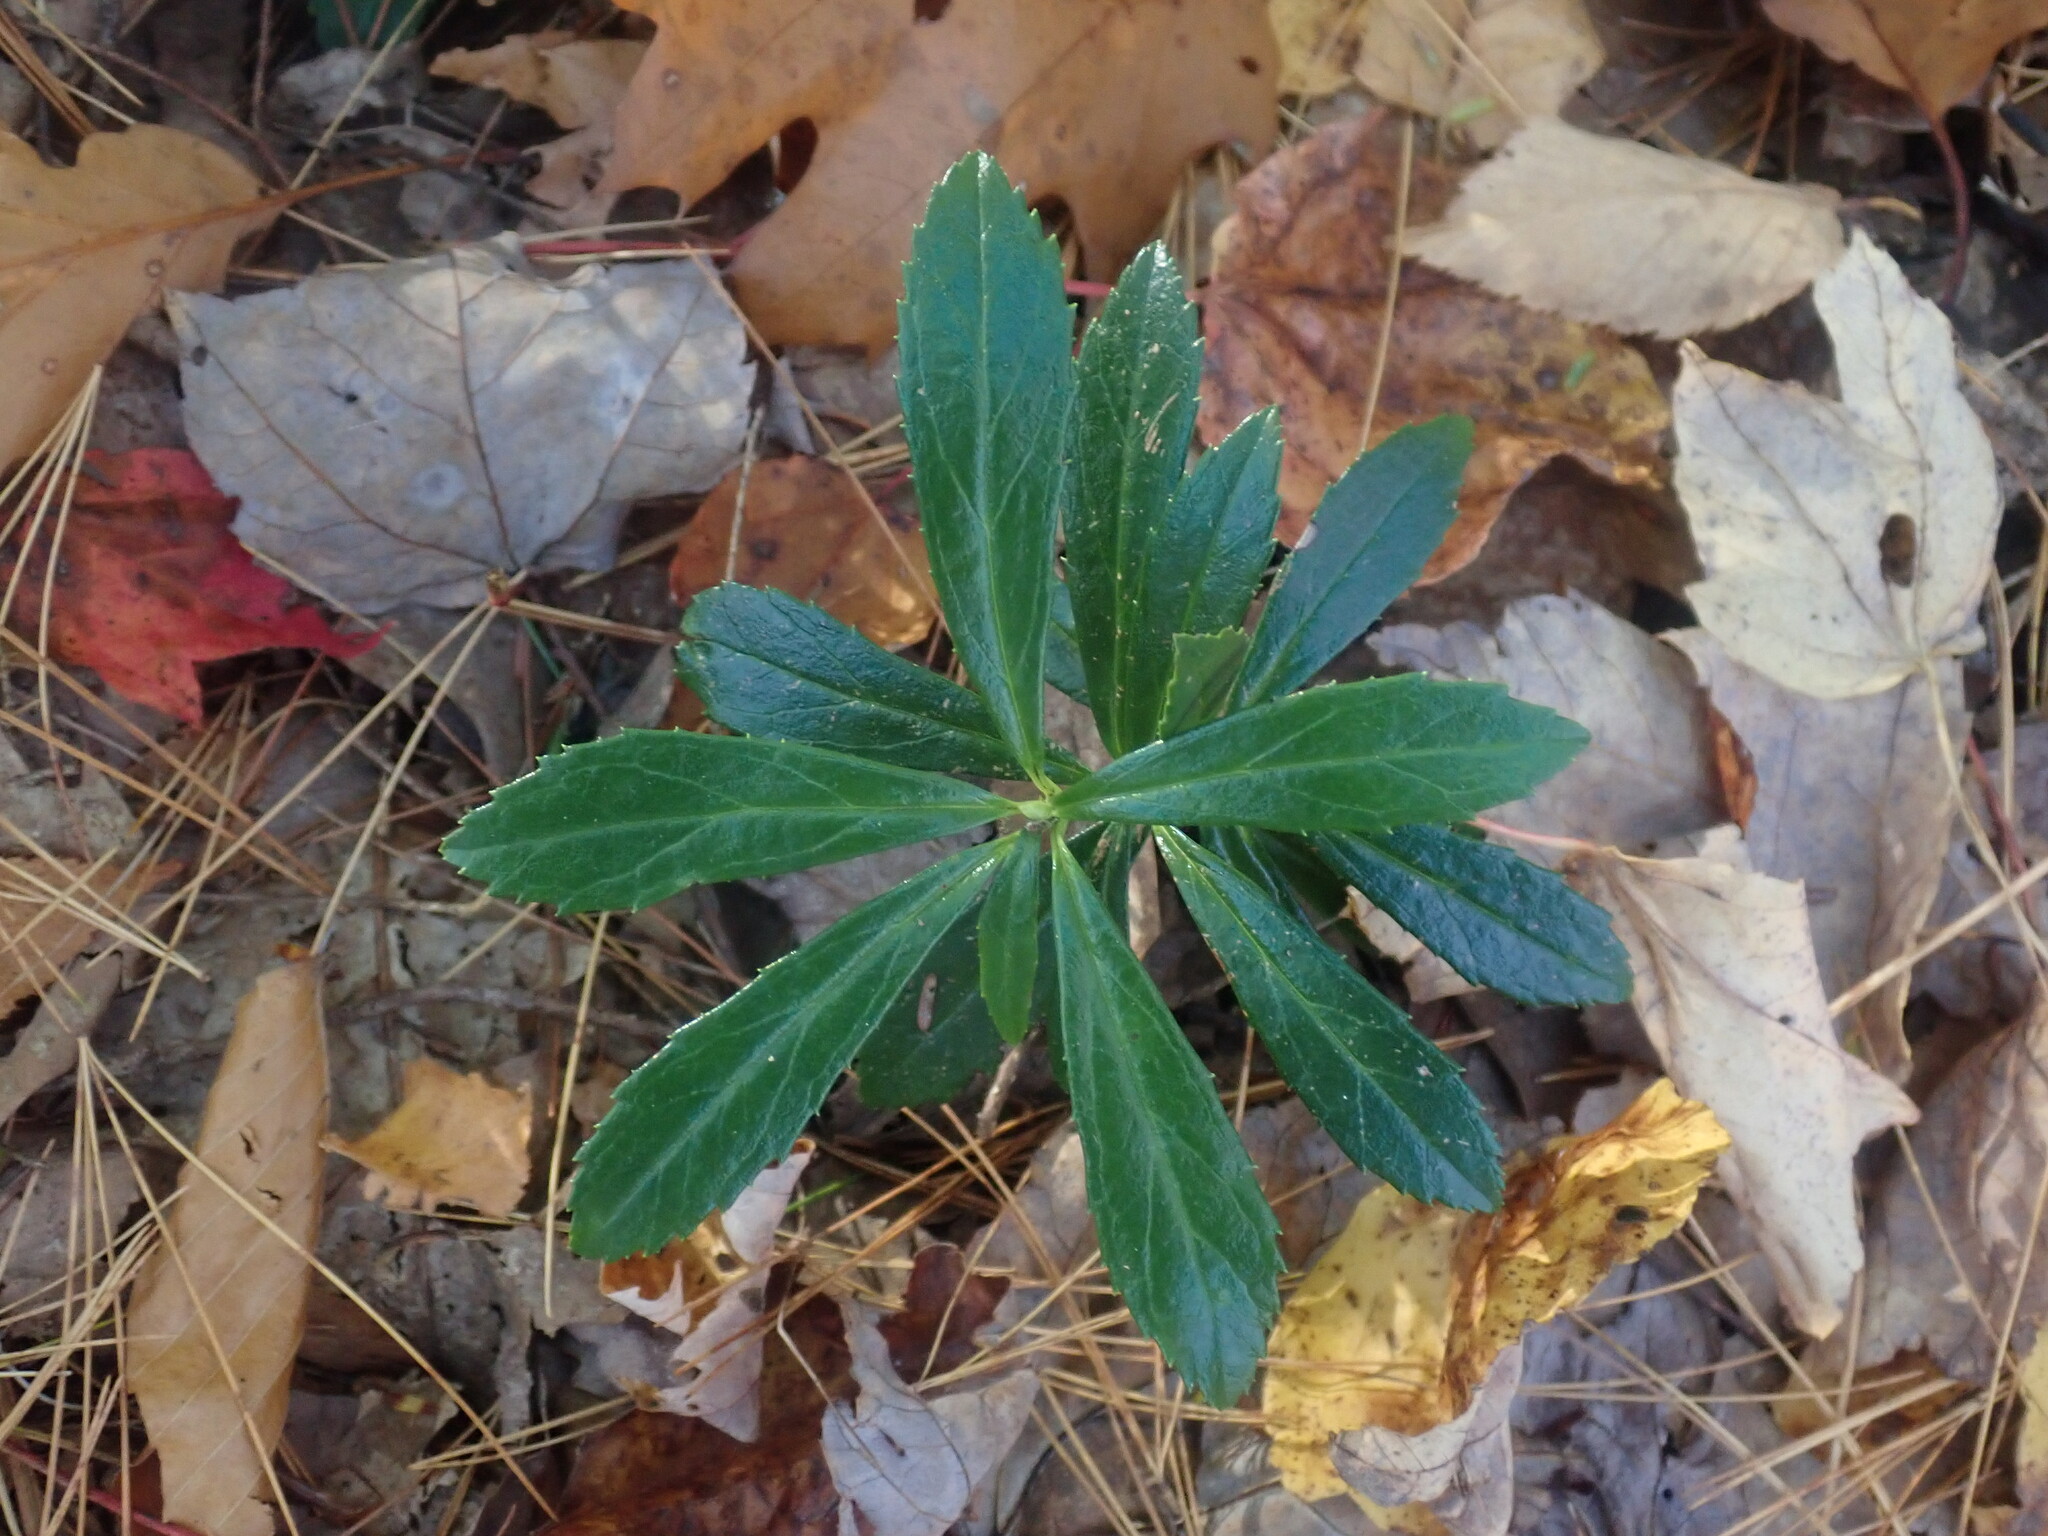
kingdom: Plantae
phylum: Tracheophyta
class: Magnoliopsida
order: Ericales
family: Ericaceae
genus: Chimaphila
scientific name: Chimaphila umbellata
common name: Pipsissewa
